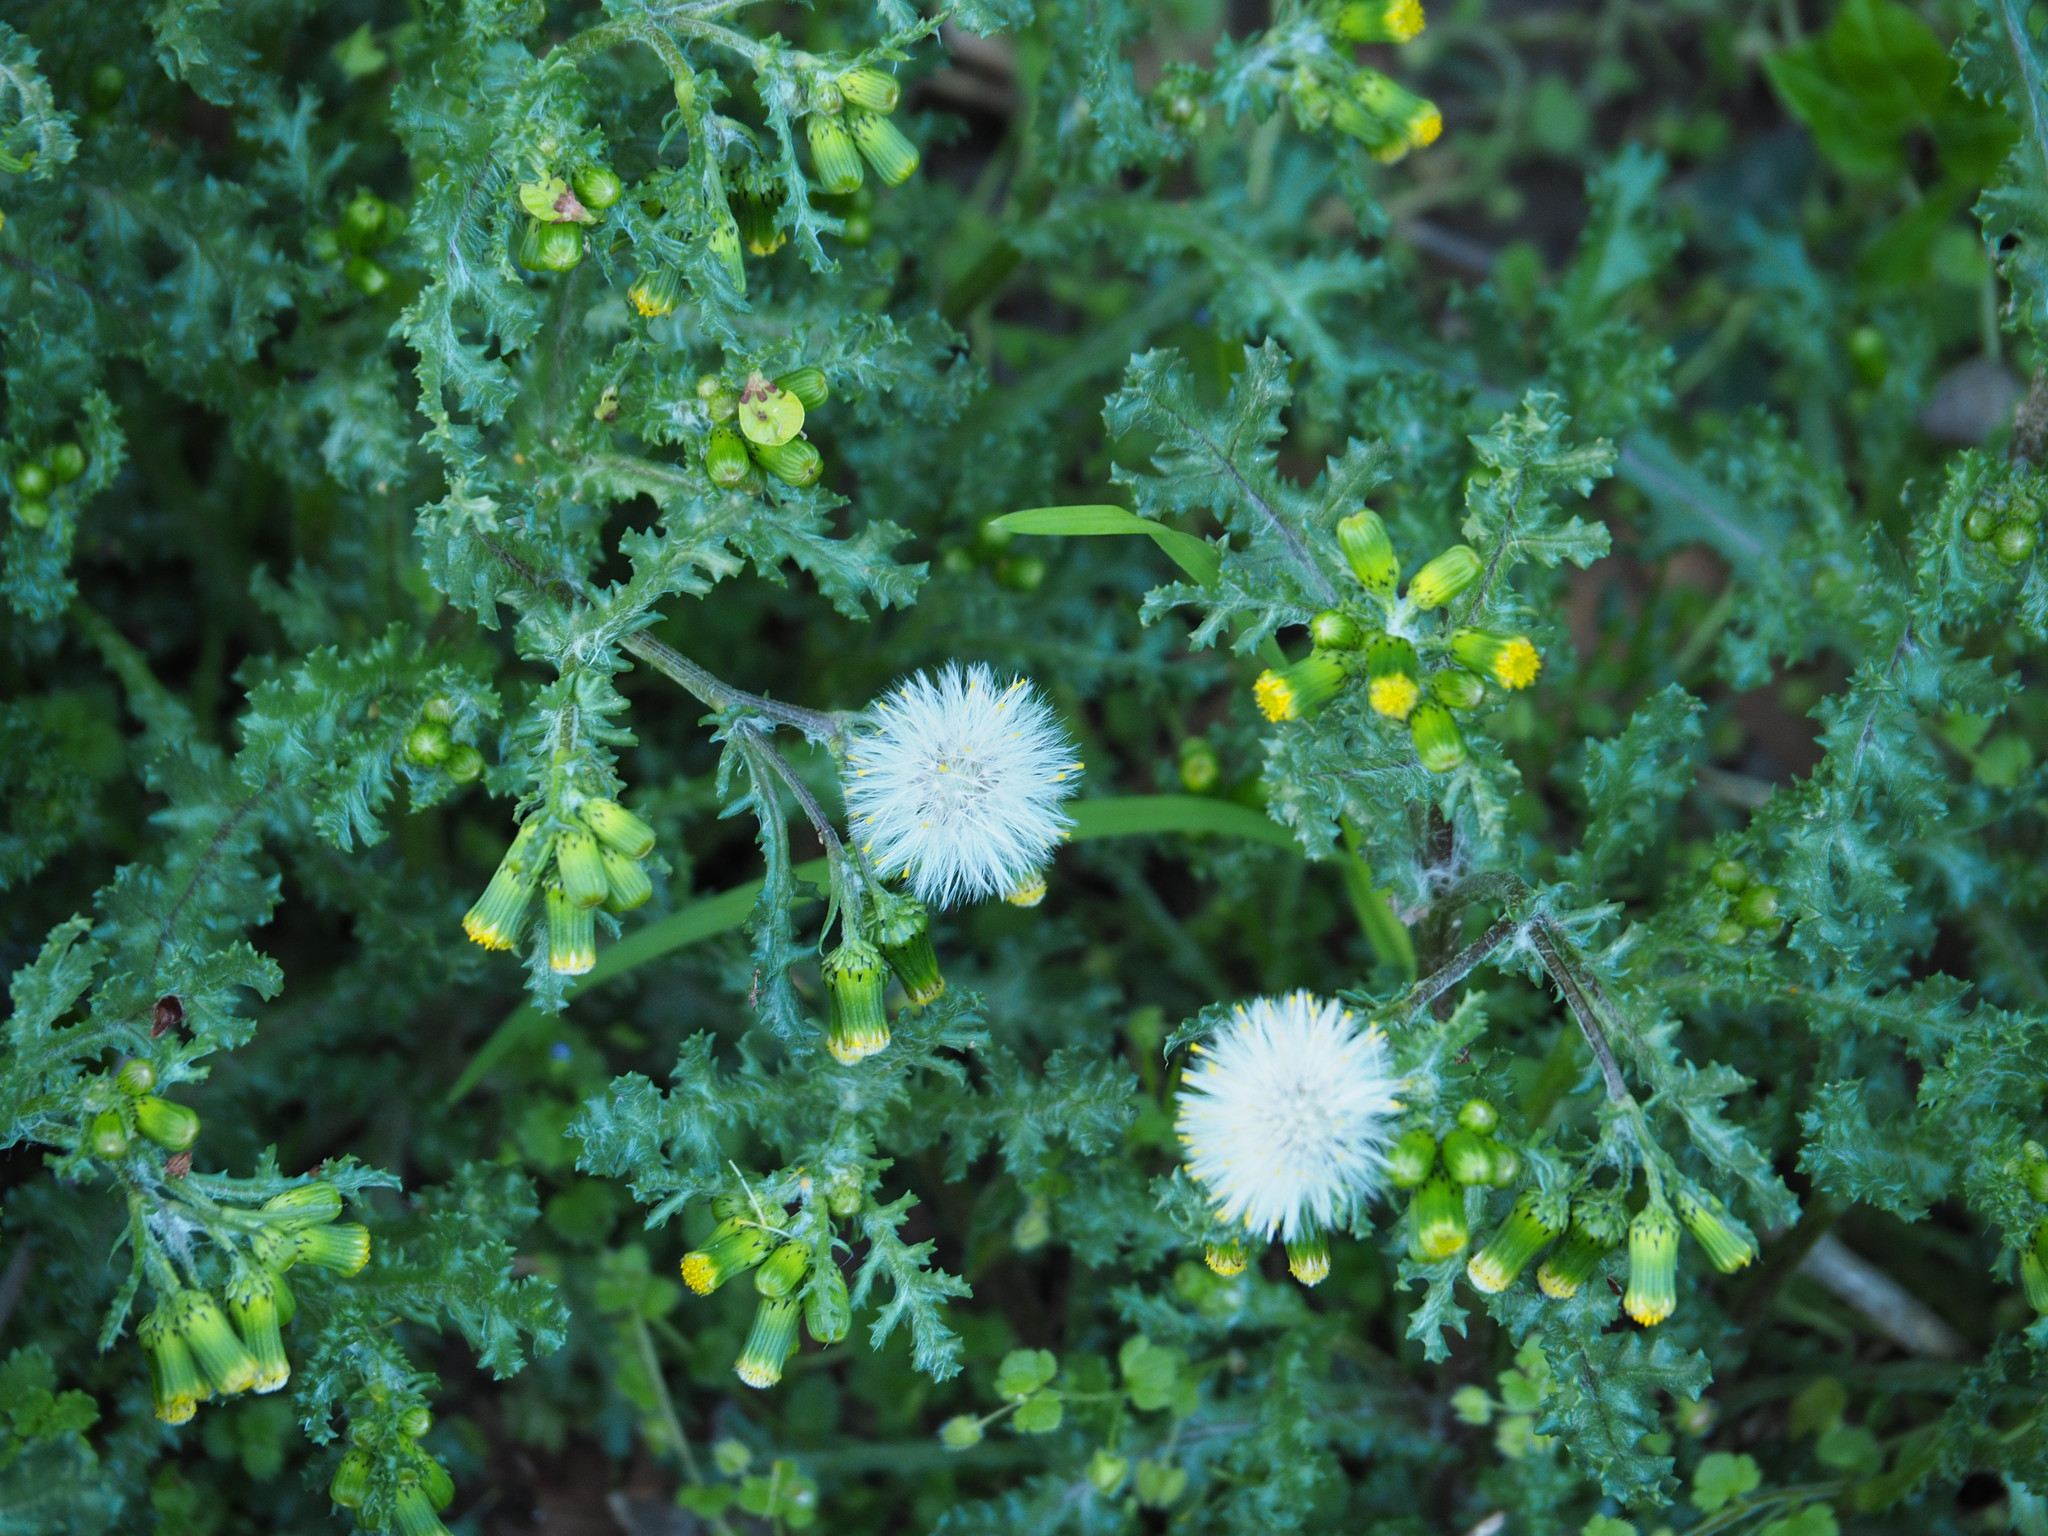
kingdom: Plantae
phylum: Tracheophyta
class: Magnoliopsida
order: Asterales
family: Asteraceae
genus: Senecio
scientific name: Senecio vulgaris
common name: Old-man-in-the-spring
